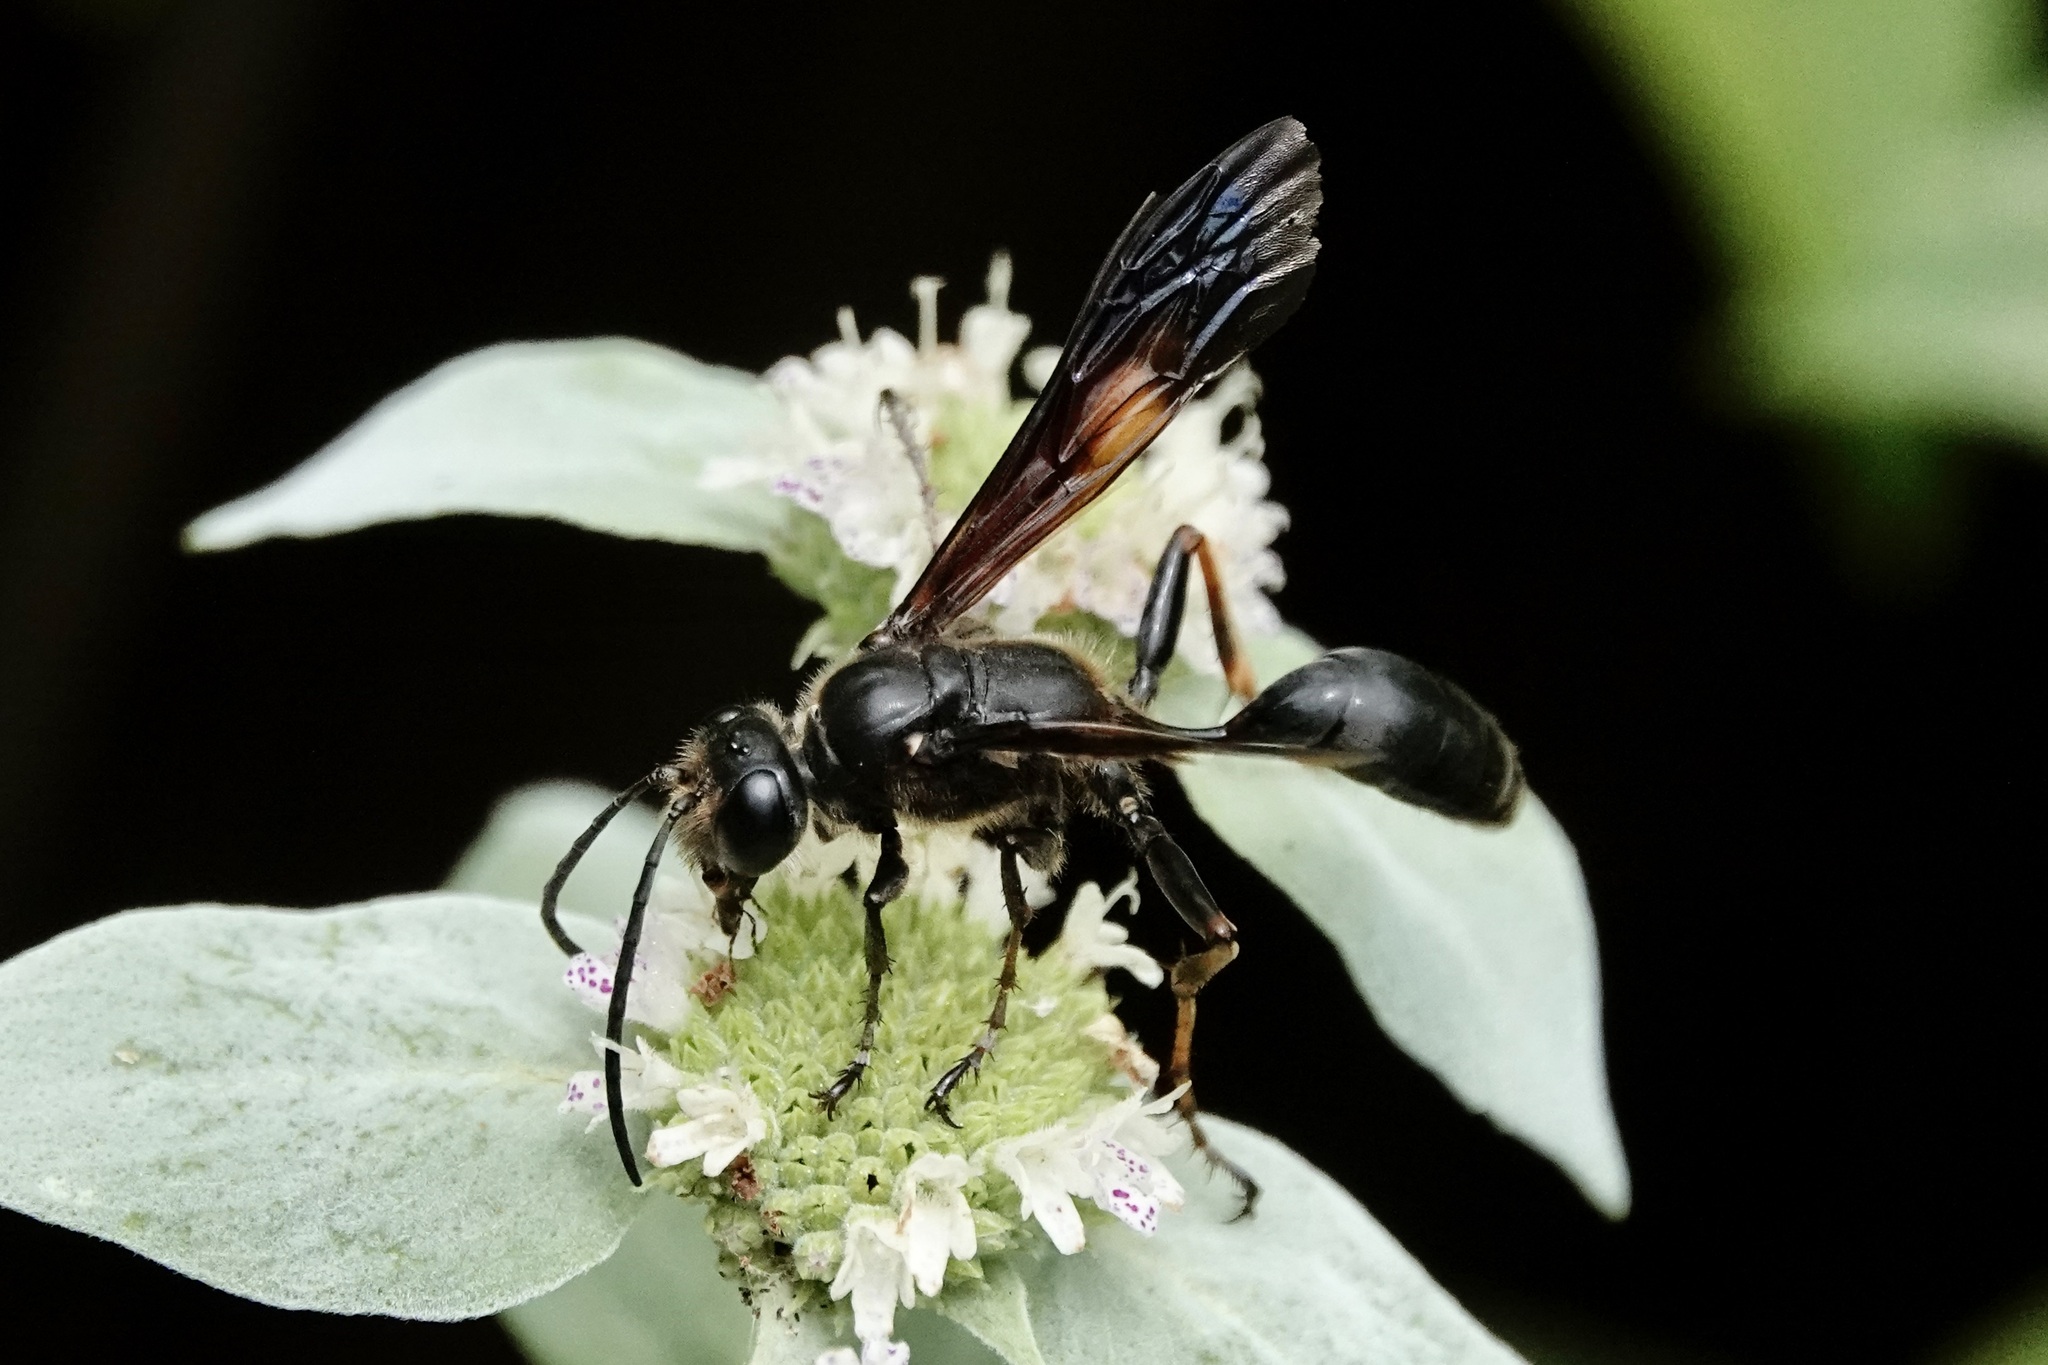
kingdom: Animalia
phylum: Arthropoda
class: Insecta
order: Hymenoptera
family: Sphecidae
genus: Isodontia
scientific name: Isodontia auripes
